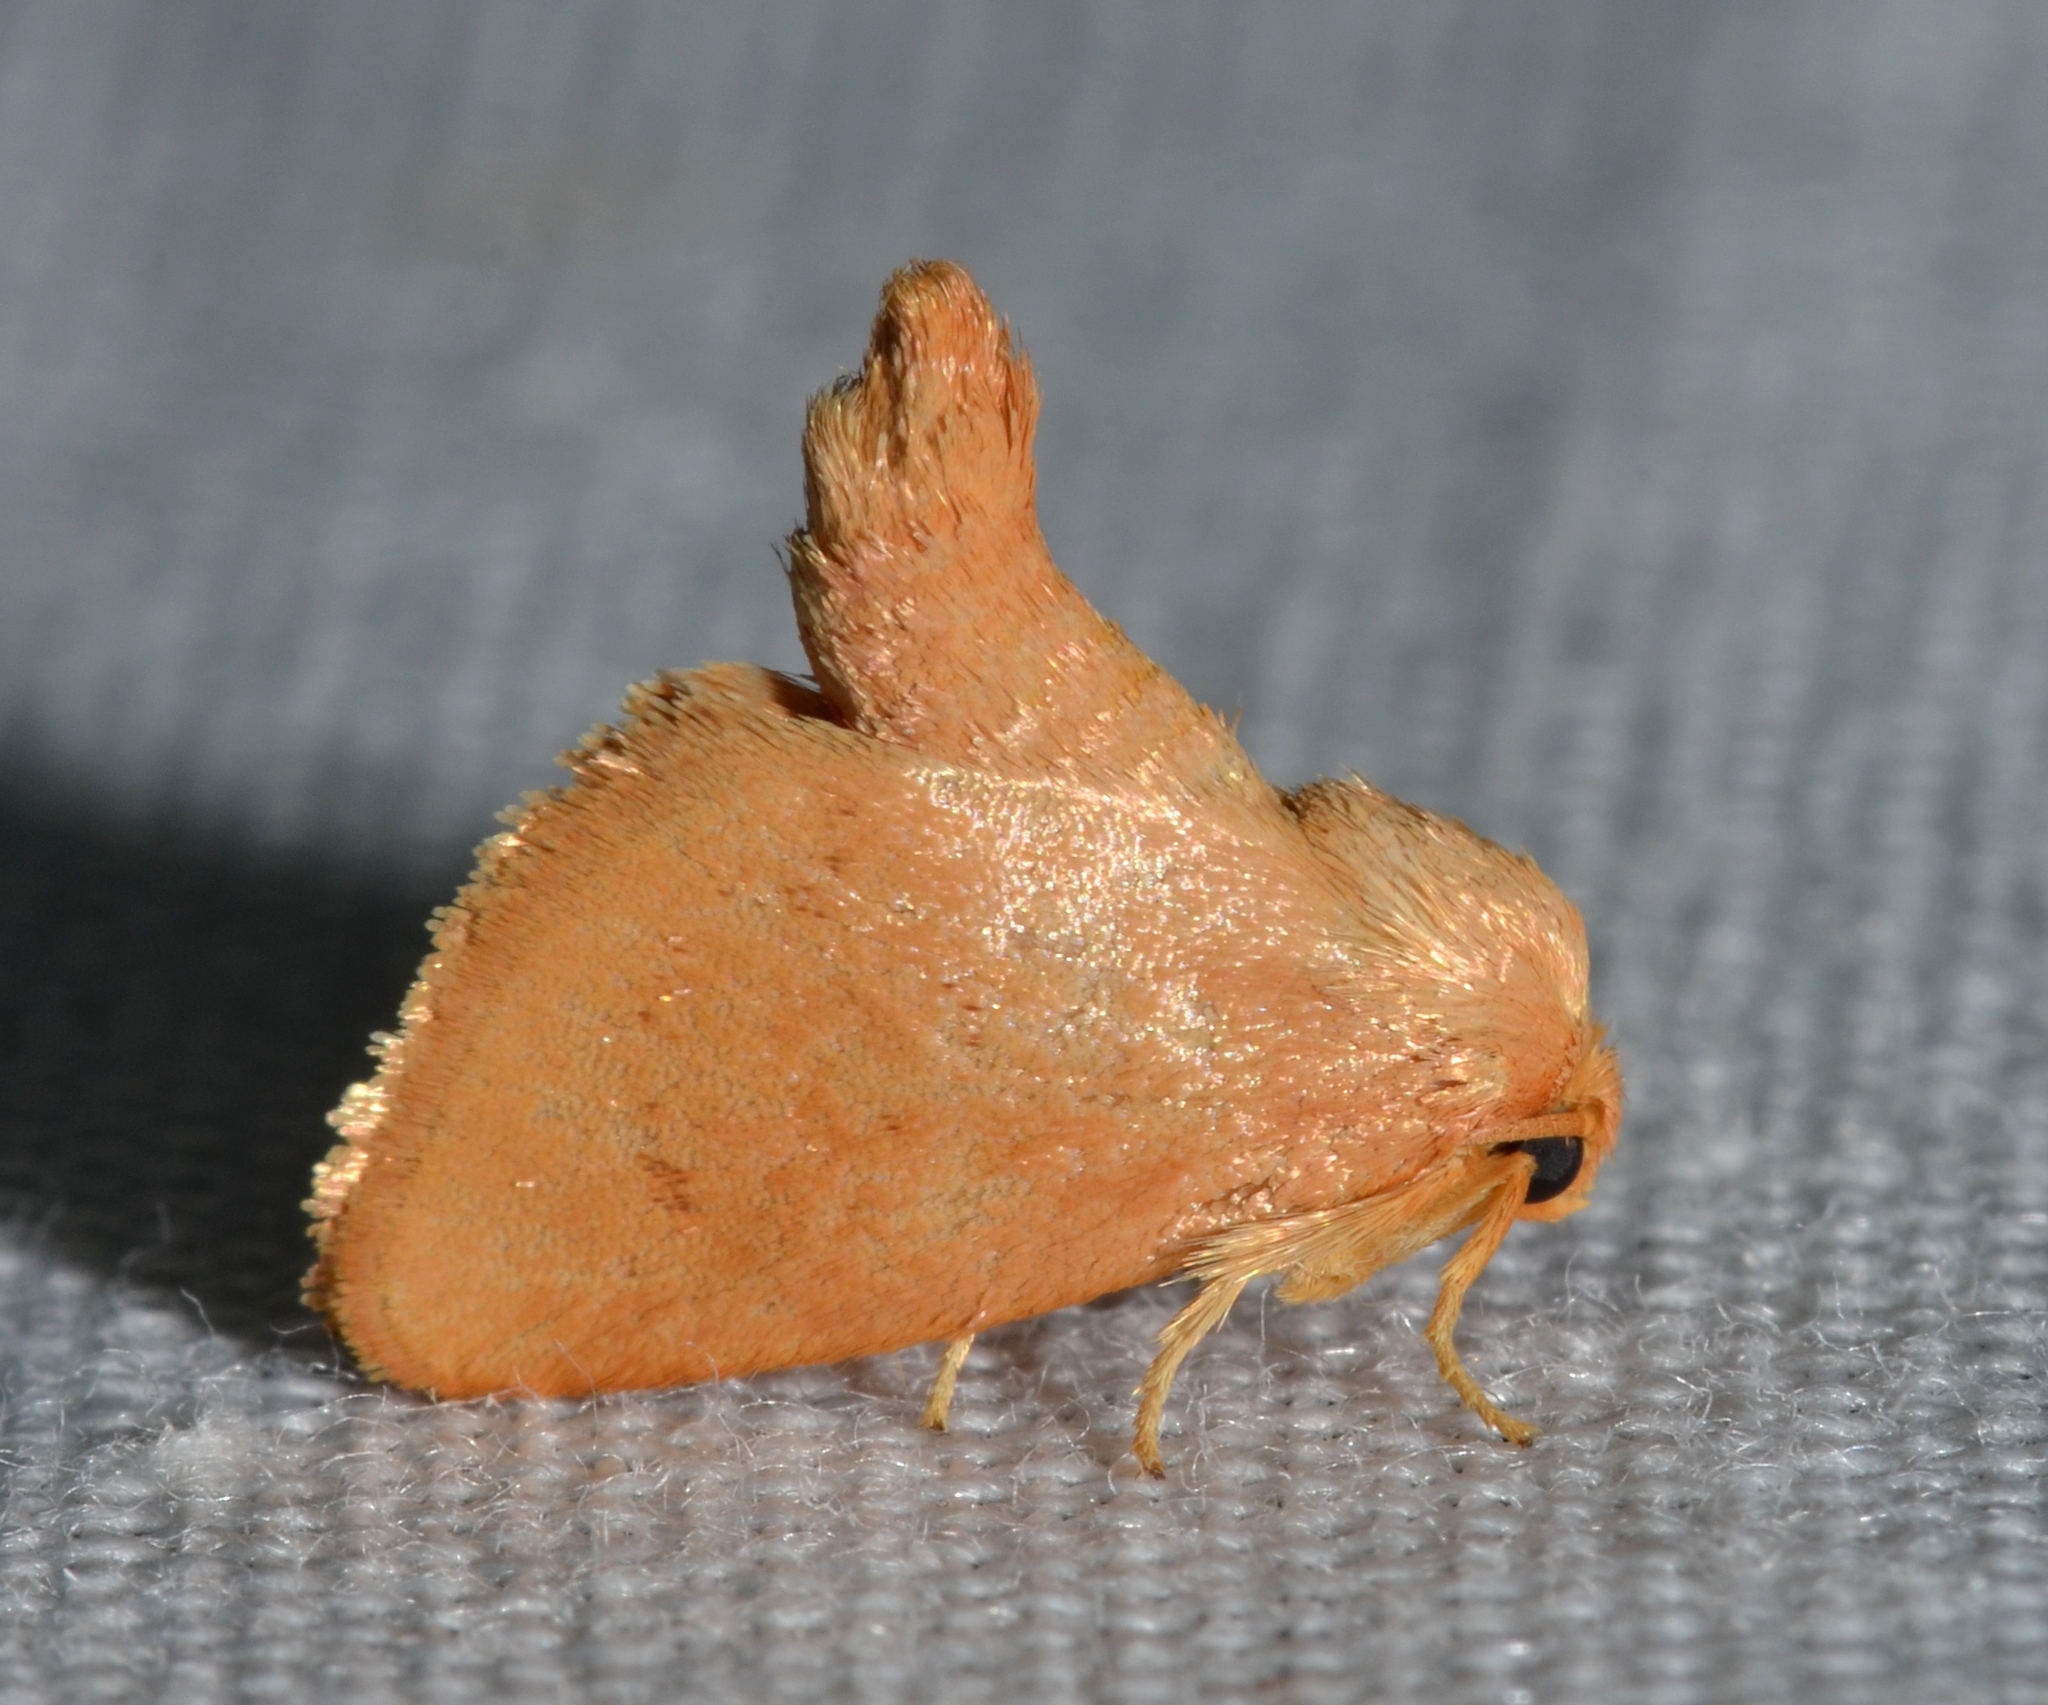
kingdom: Animalia
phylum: Arthropoda
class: Insecta
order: Lepidoptera
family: Limacodidae
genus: Tortricidia
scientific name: Tortricidia pallida
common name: Red-crossed button slug moth
